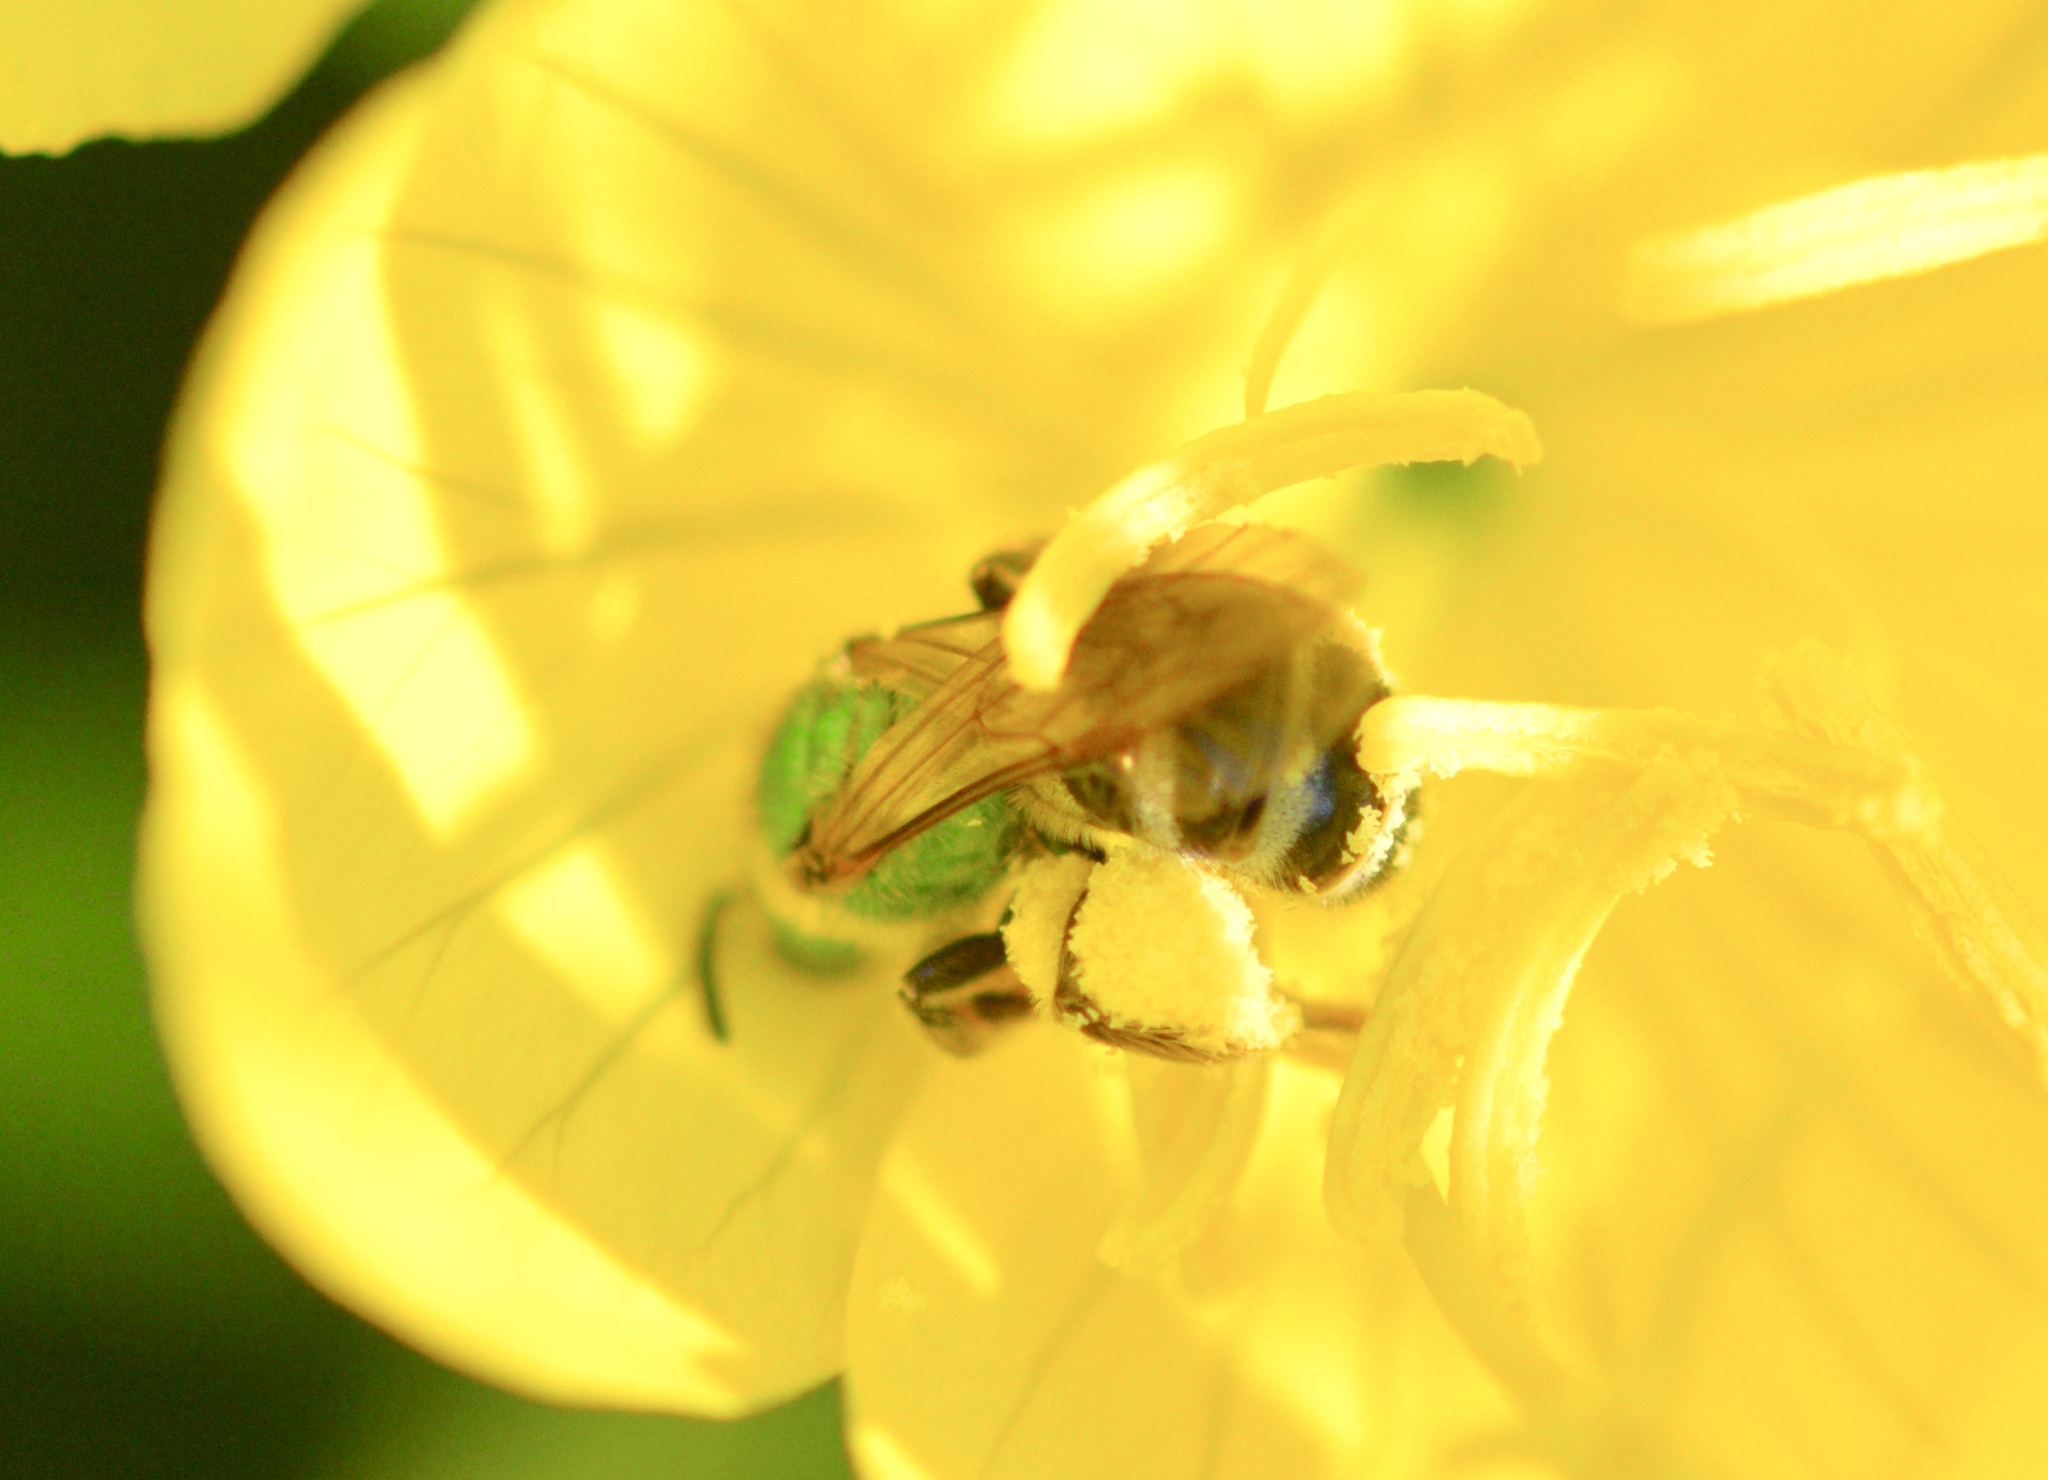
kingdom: Animalia
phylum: Arthropoda
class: Insecta
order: Hymenoptera
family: Halictidae
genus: Agapostemon
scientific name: Agapostemon virescens
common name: Bicolored striped sweat bee
